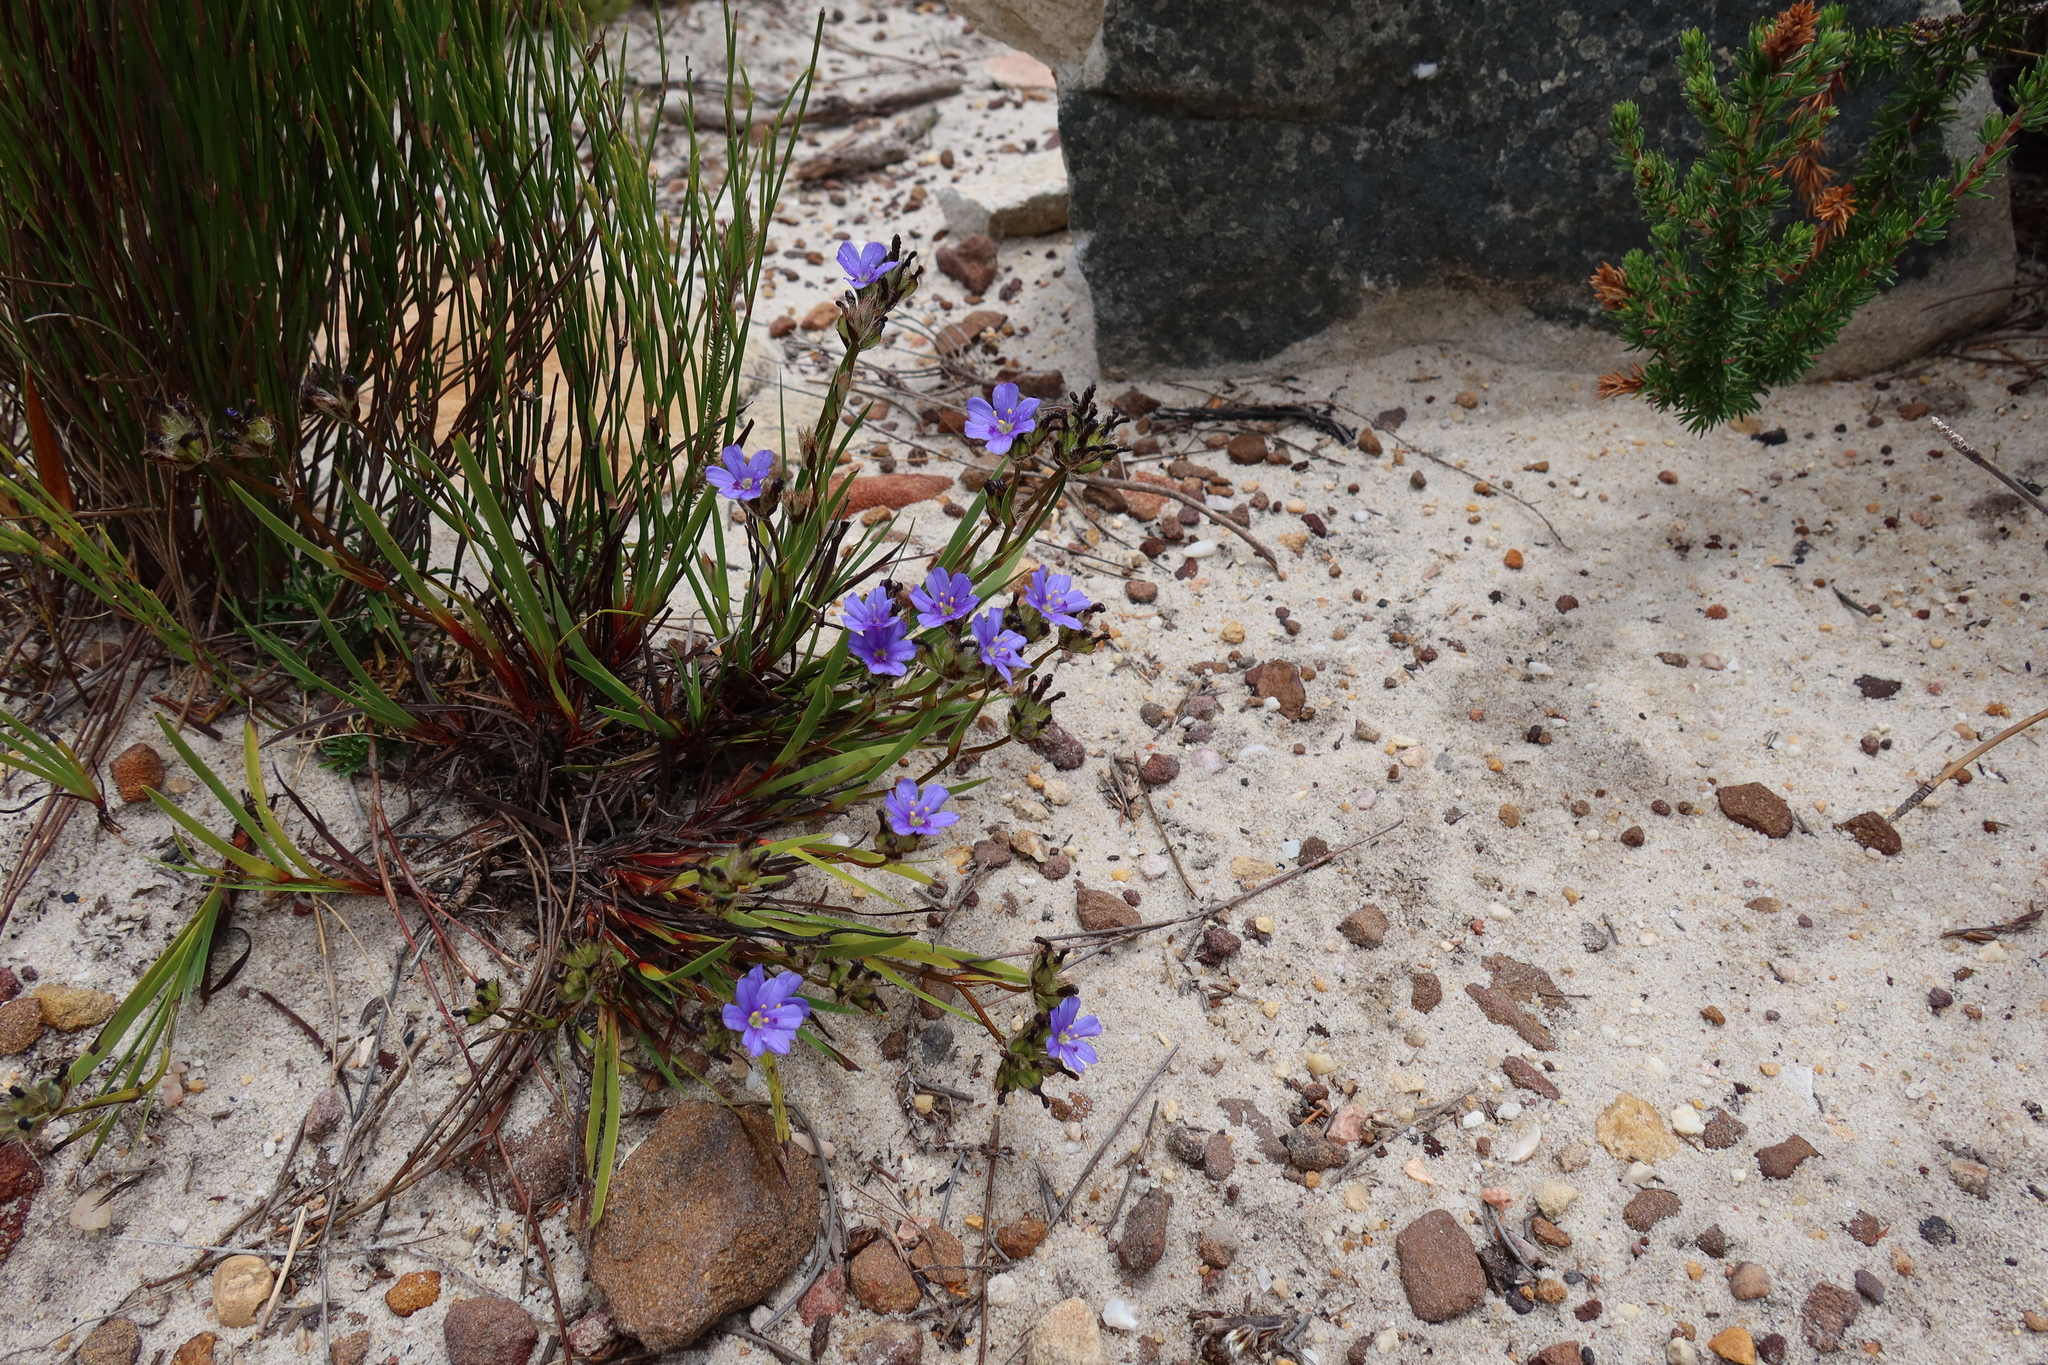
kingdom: Plantae
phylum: Tracheophyta
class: Liliopsida
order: Asparagales
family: Iridaceae
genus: Aristea
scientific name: Aristea africana
